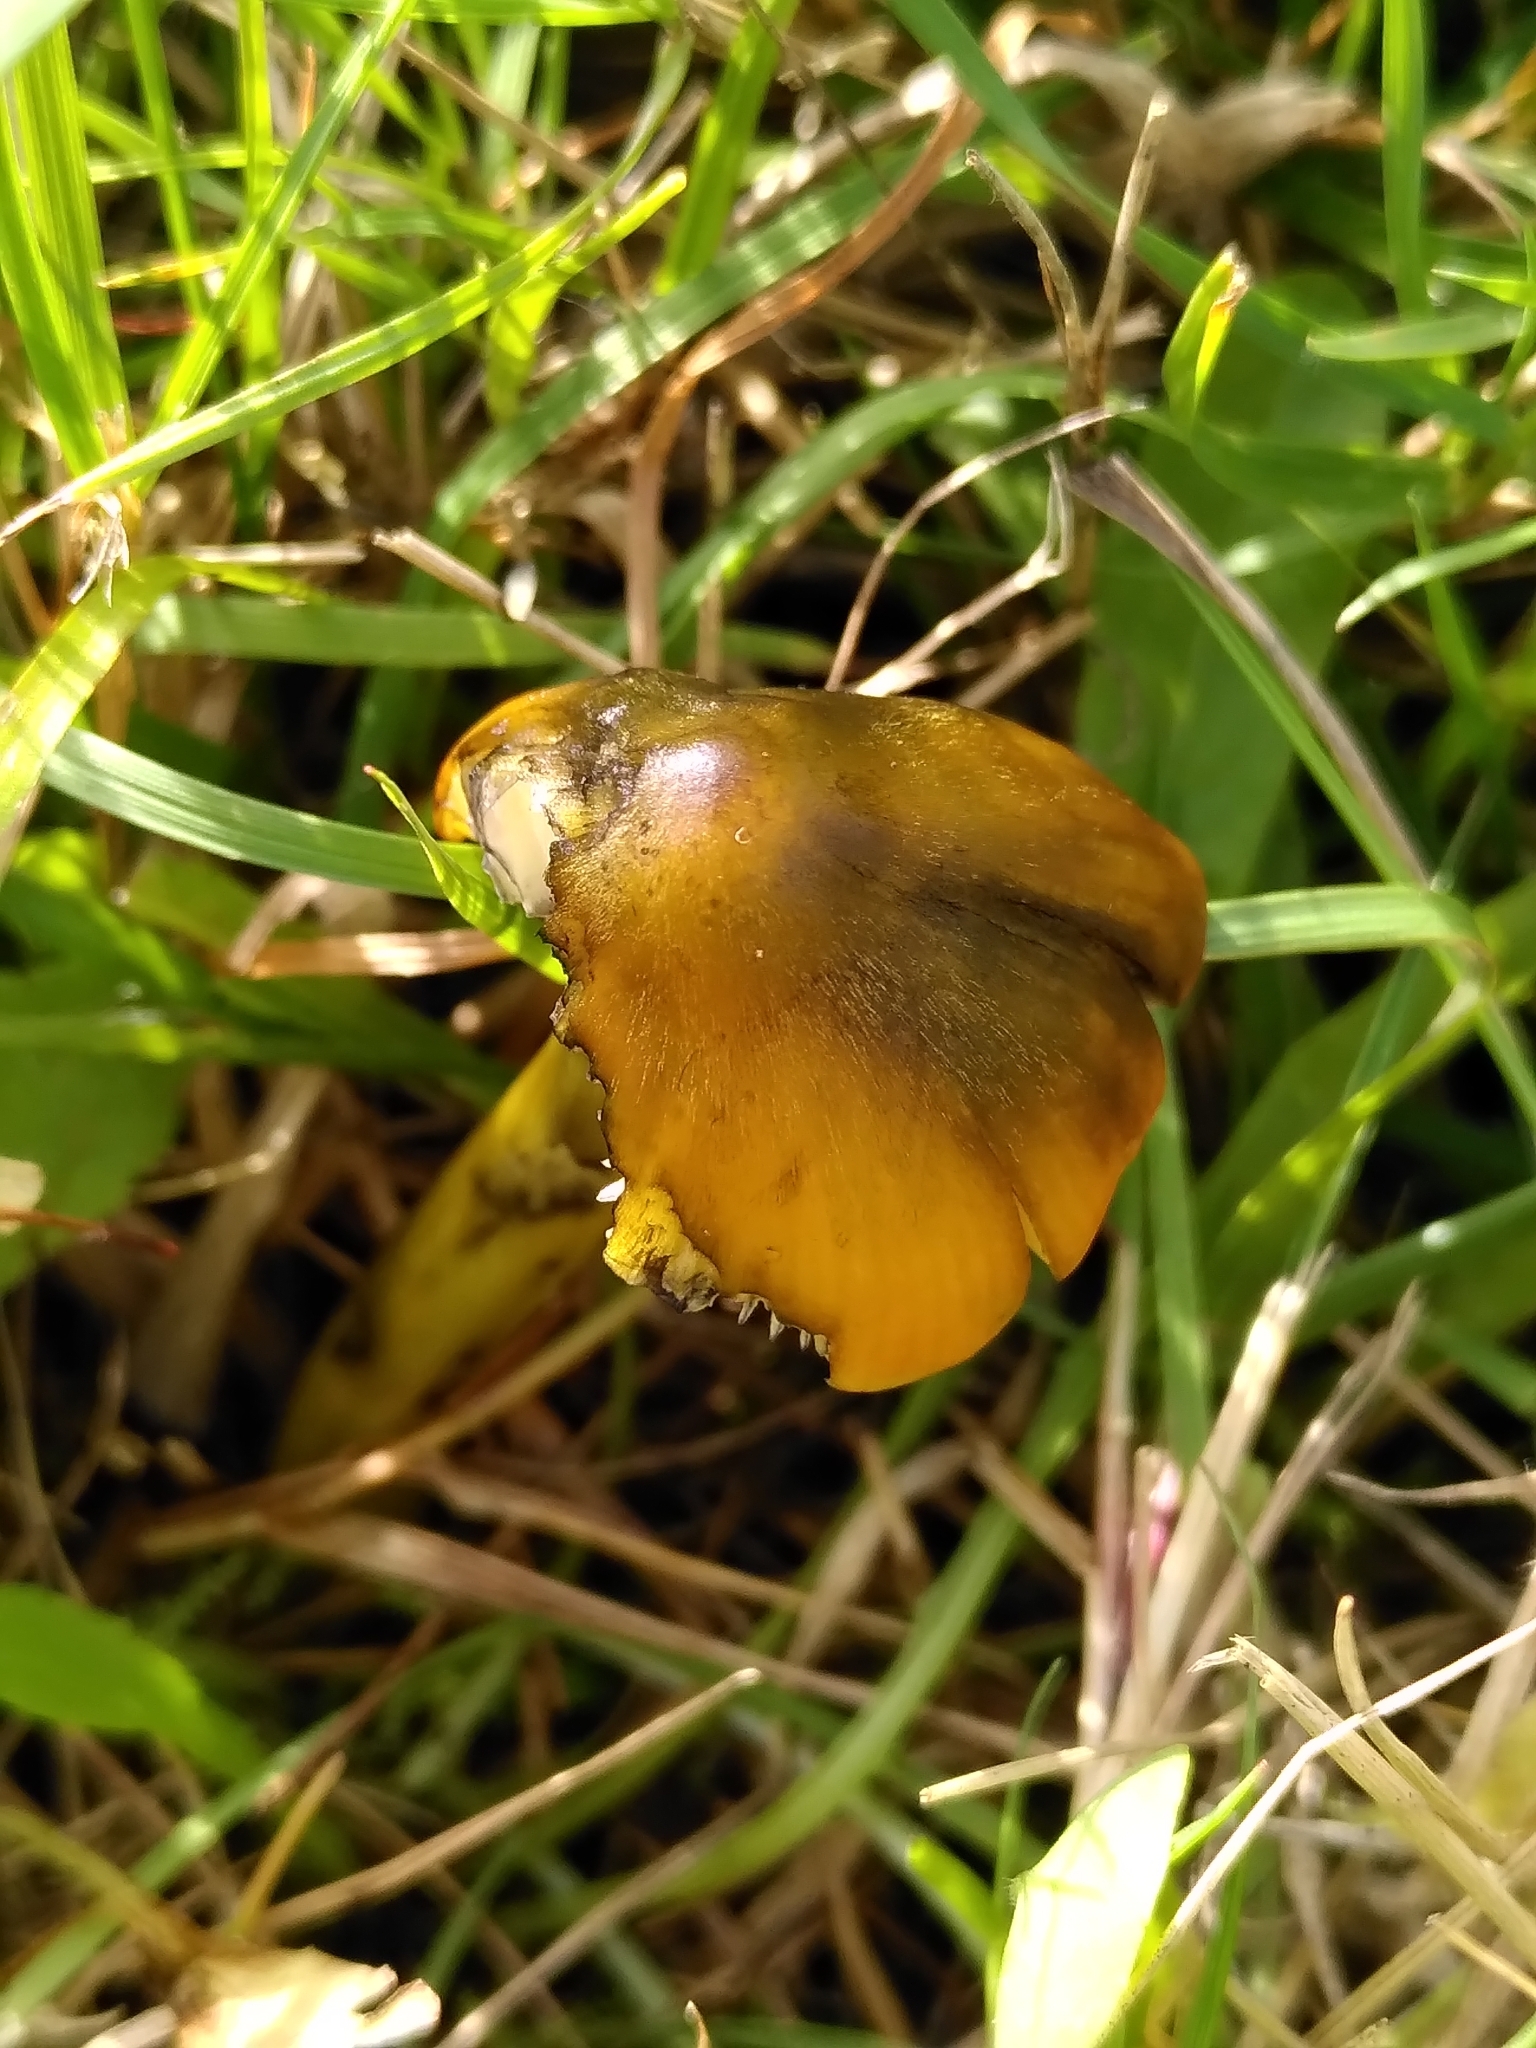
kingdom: Fungi
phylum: Basidiomycota
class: Agaricomycetes
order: Agaricales
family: Hygrophoraceae
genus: Hygrocybe
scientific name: Hygrocybe conica
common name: Blackening wax-cap
